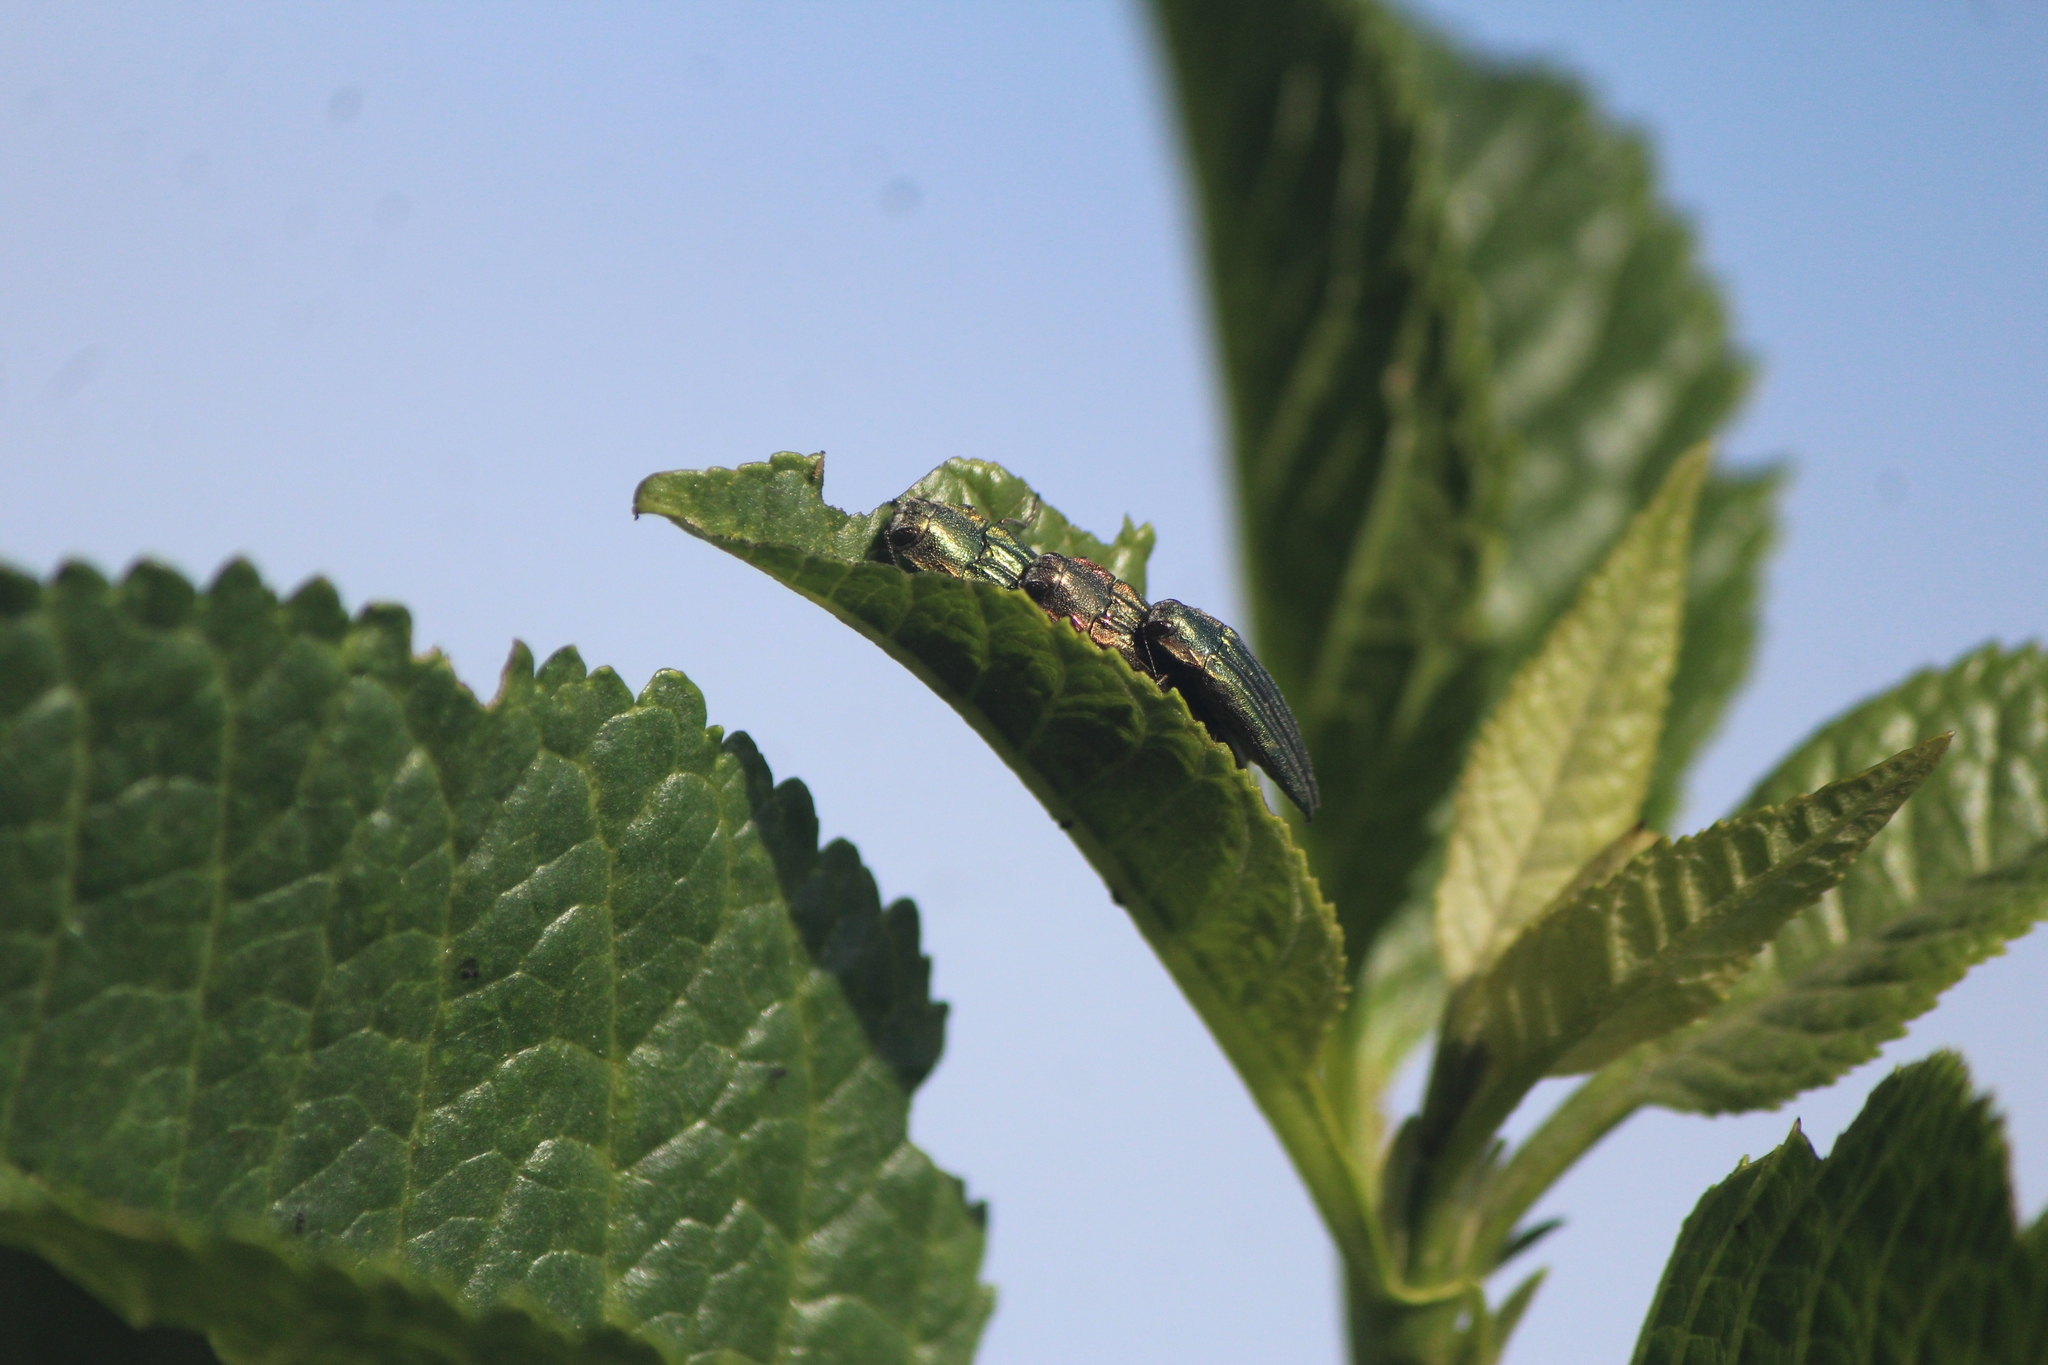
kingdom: Animalia
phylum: Arthropoda
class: Insecta
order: Coleoptera
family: Buprestidae
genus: Agrilus
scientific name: Agrilus sulcatulus
